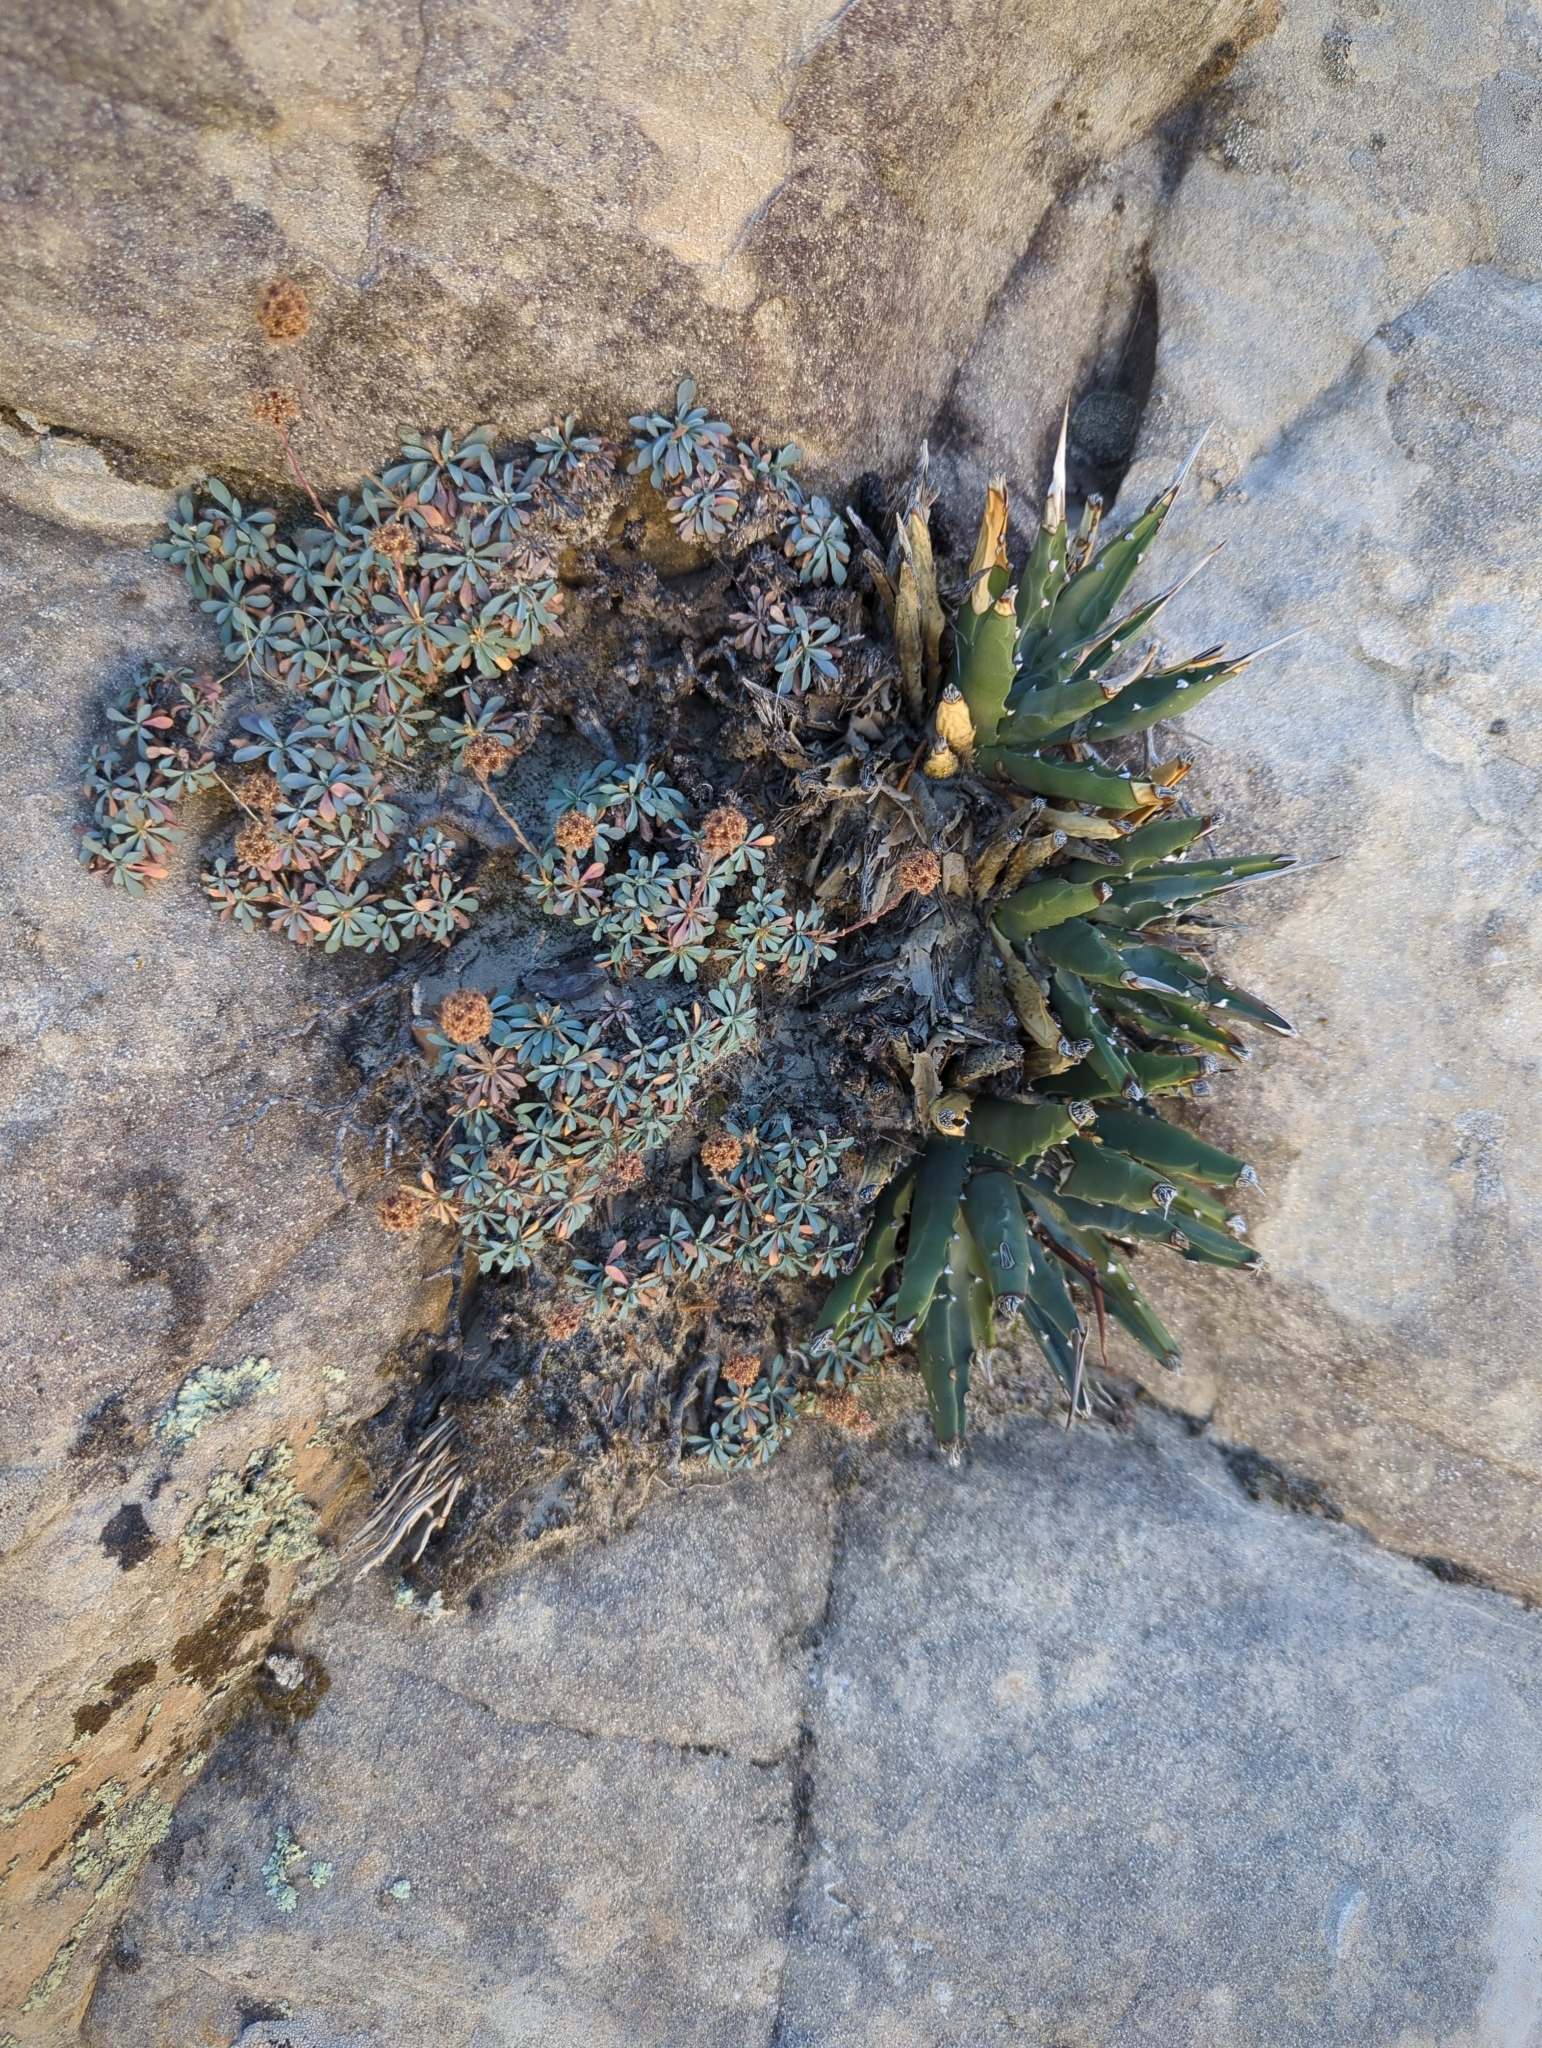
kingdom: Plantae
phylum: Tracheophyta
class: Liliopsida
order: Asparagales
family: Asparagaceae
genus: Agave
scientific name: Agave utahensis
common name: Utah agave
